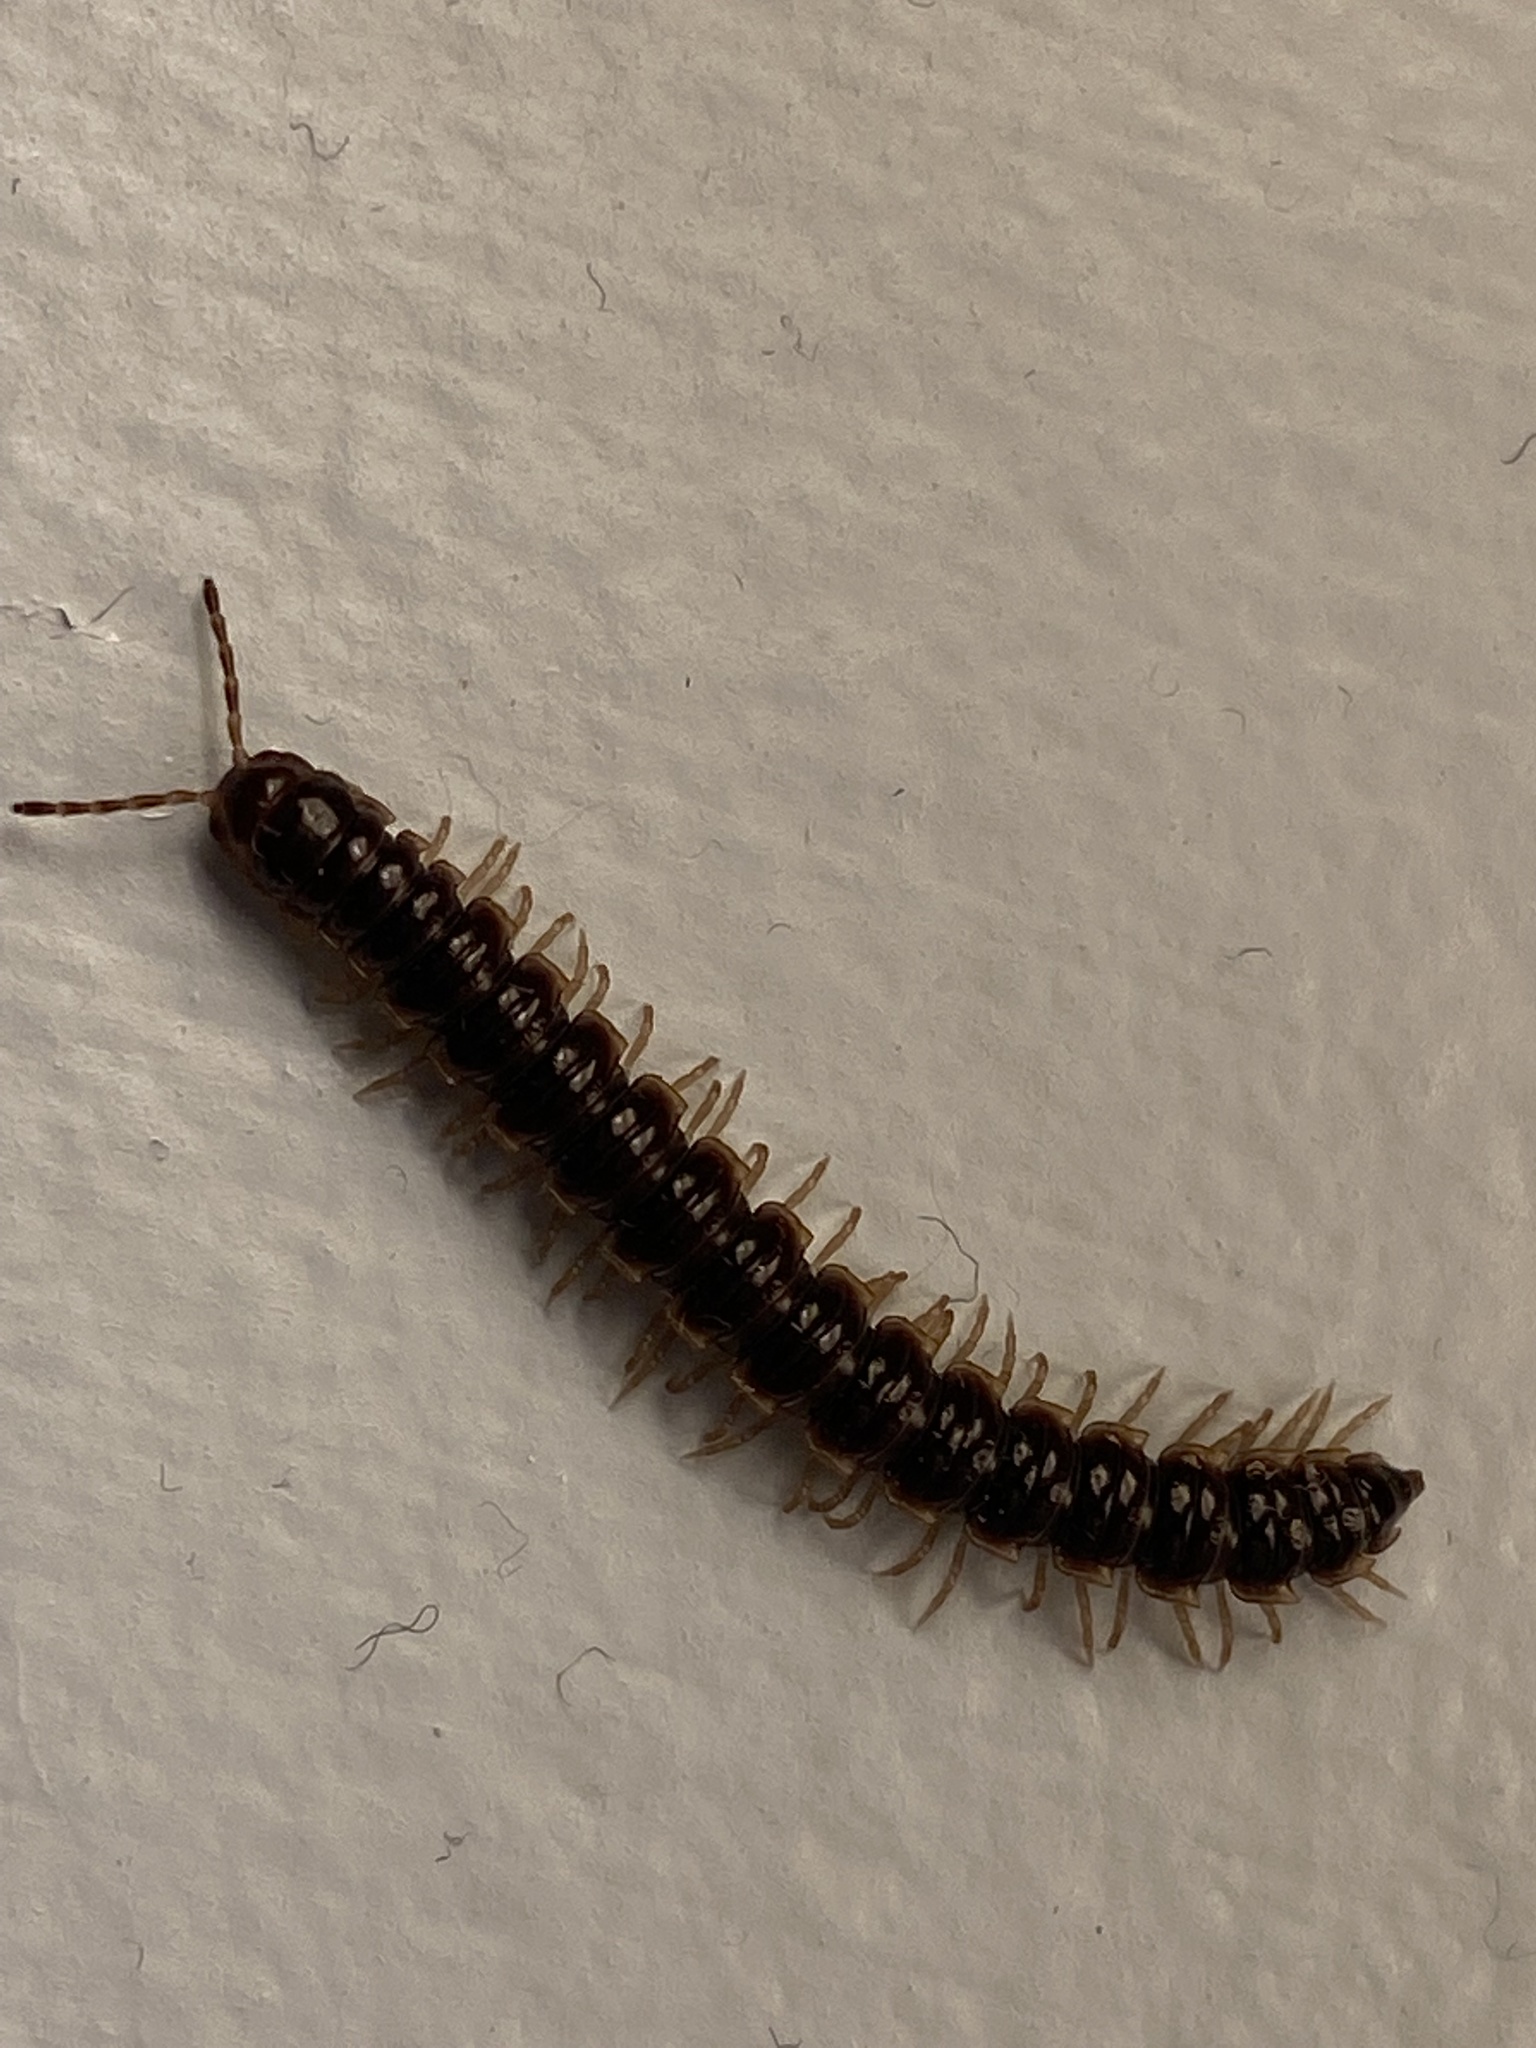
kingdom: Animalia
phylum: Arthropoda
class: Diplopoda
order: Polydesmida
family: Paradoxosomatidae
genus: Oxidus
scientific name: Oxidus gracilis
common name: Greenhouse millipede
